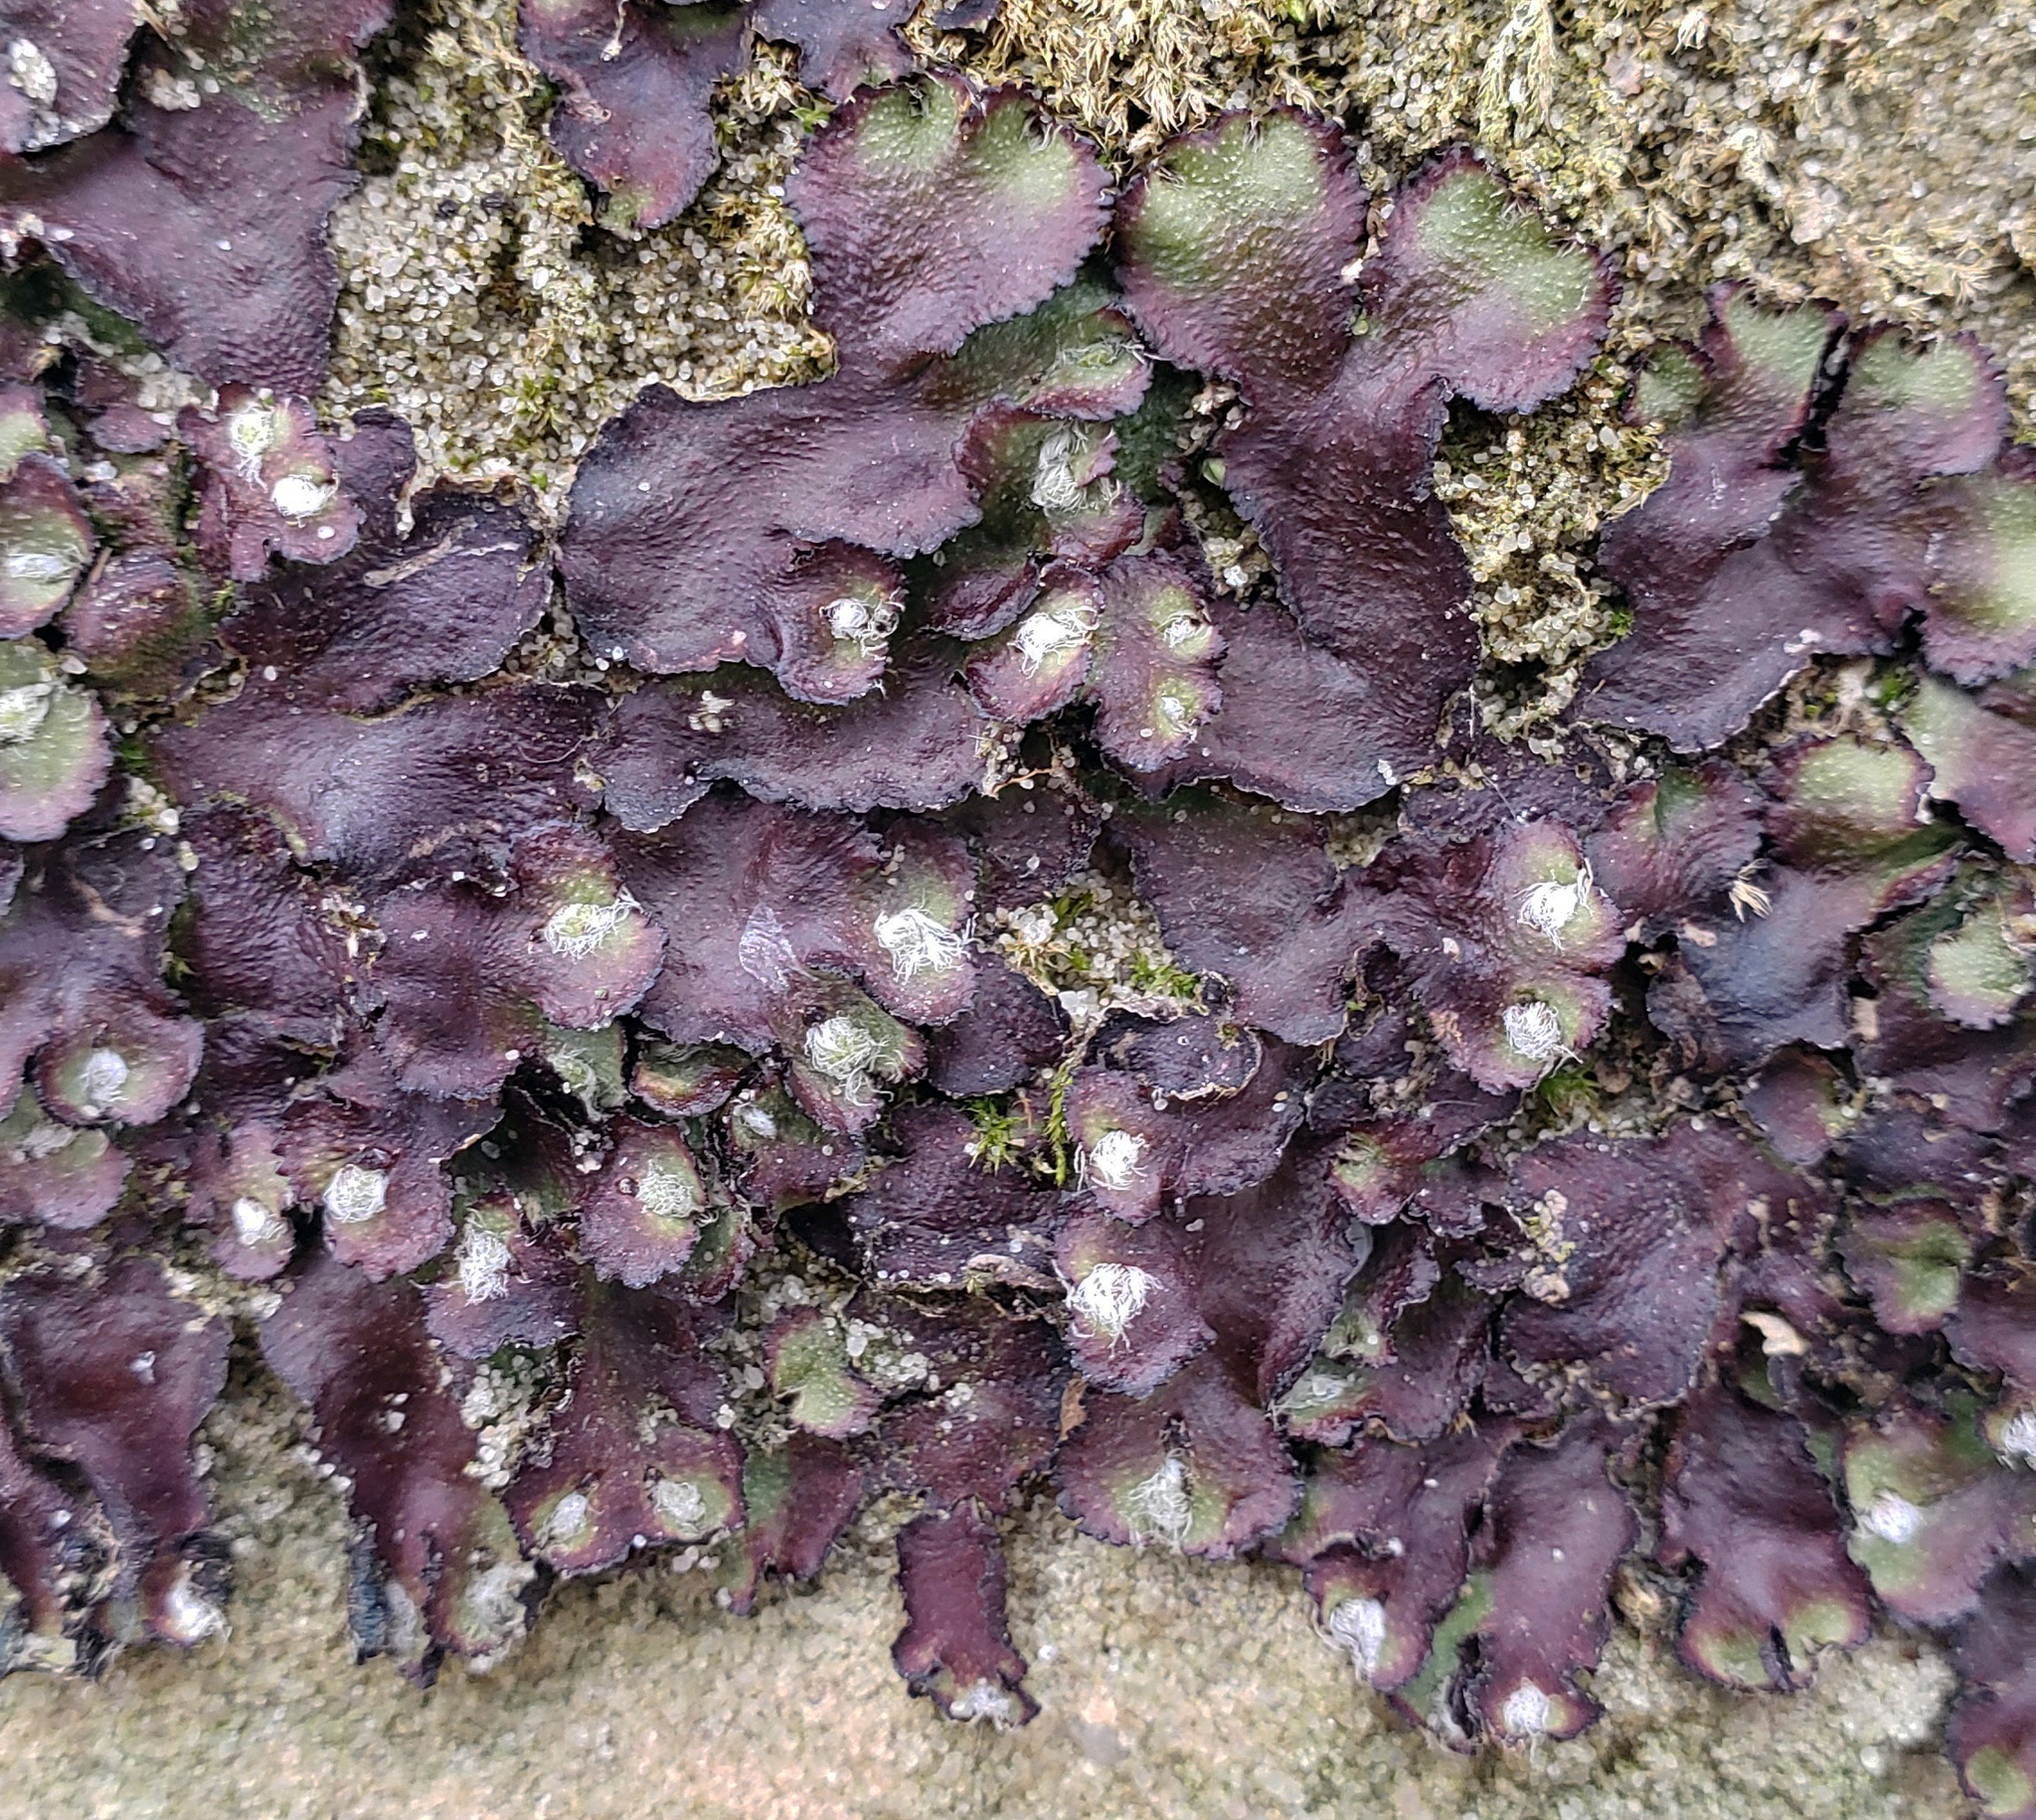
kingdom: Plantae
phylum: Marchantiophyta
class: Marchantiopsida
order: Marchantiales
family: Aytoniaceae
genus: Reboulia
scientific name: Reboulia hemisphaerica
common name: Purple-margined liverwort
